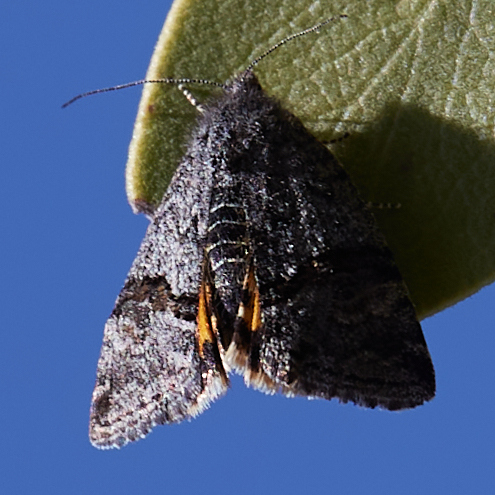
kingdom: Animalia
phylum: Arthropoda
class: Insecta
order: Lepidoptera
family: Noctuidae
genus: Annaphila
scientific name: Annaphila depicta
